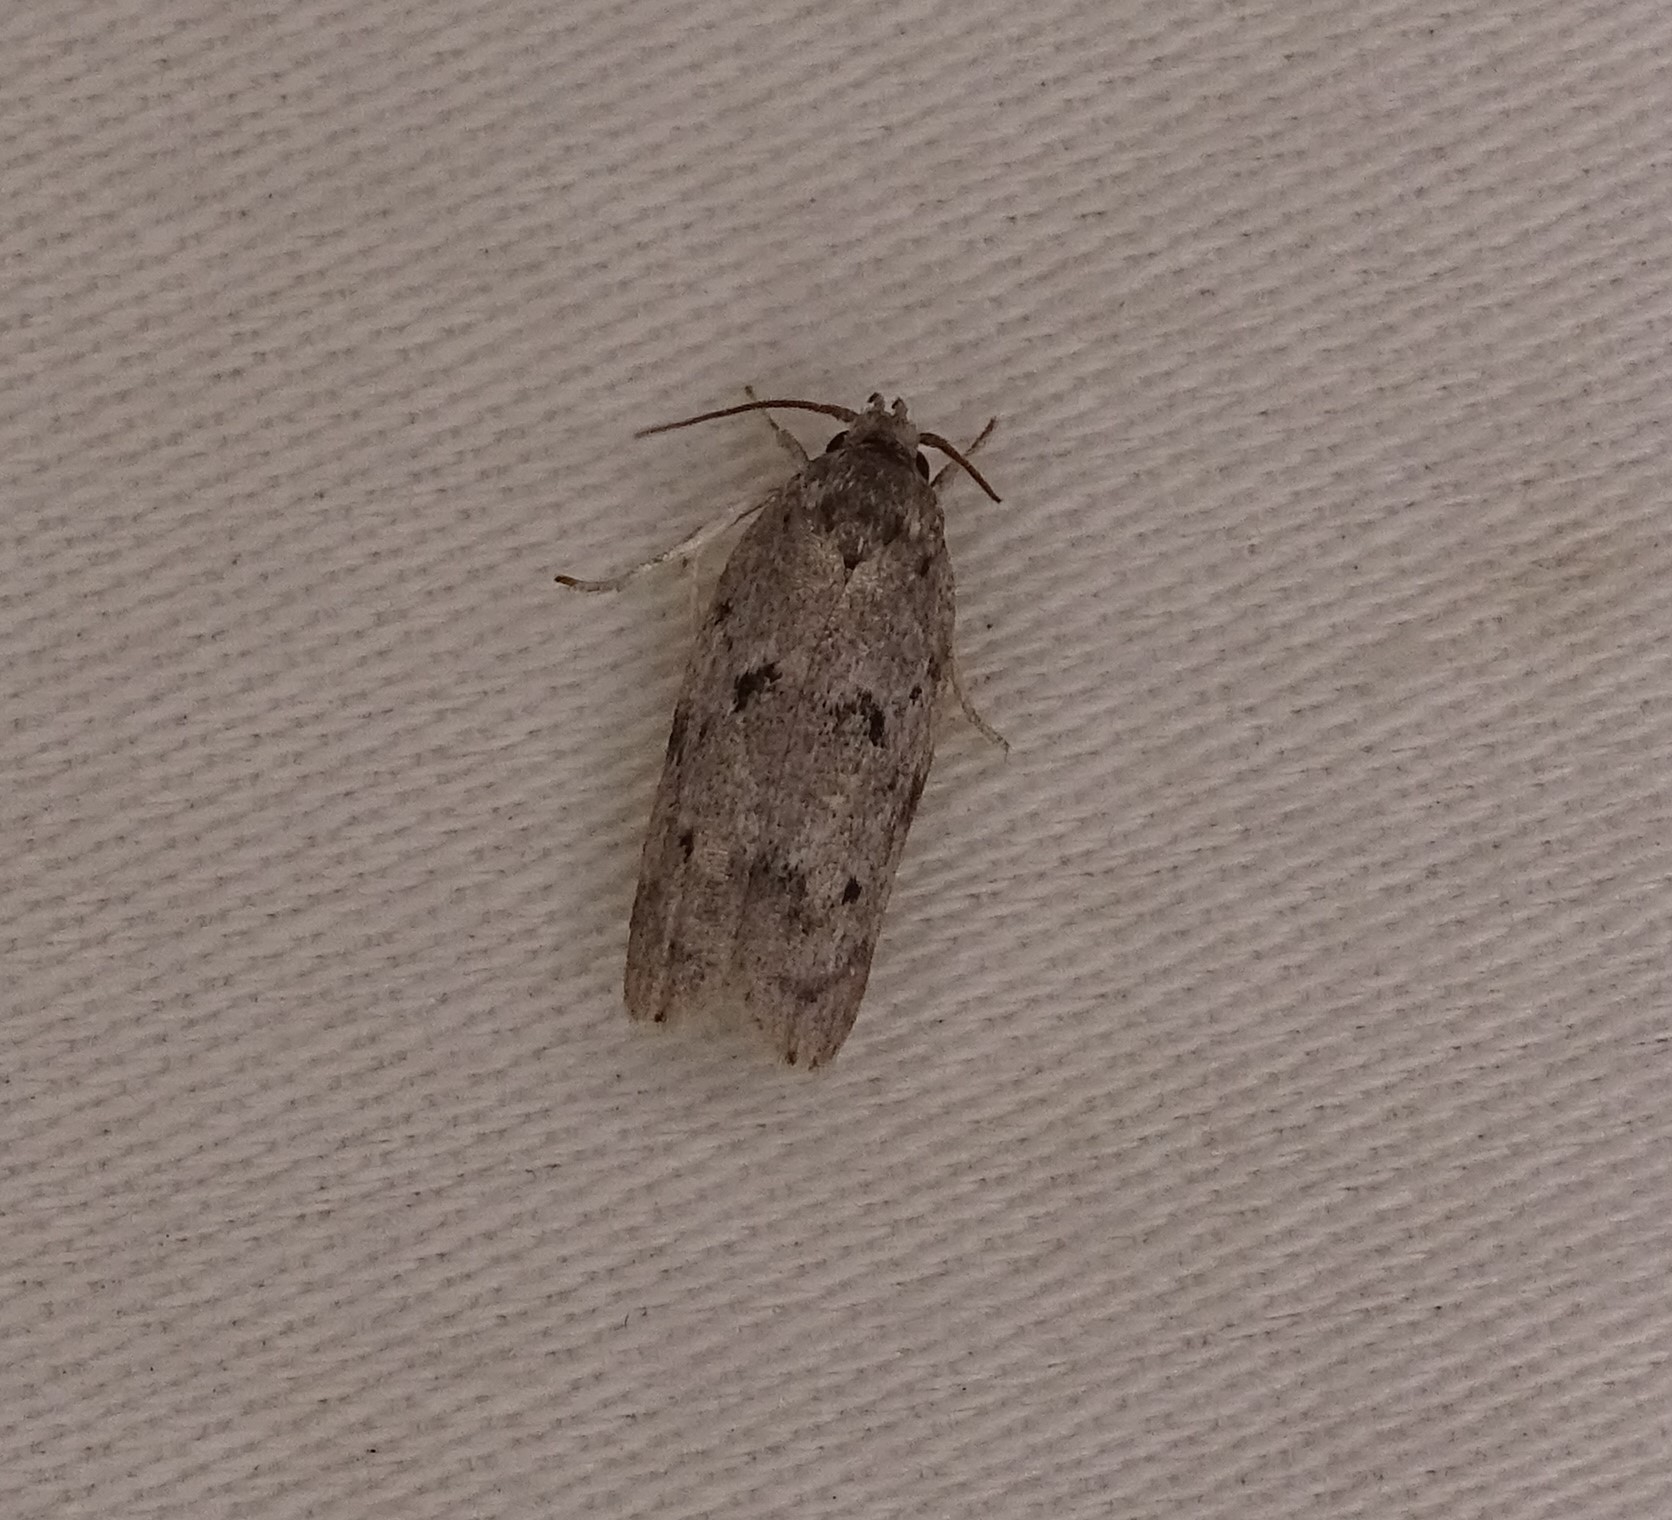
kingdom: Animalia
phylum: Arthropoda
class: Insecta
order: Lepidoptera
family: Depressariidae
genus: Antaeotricha
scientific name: Antaeotricha humilis
